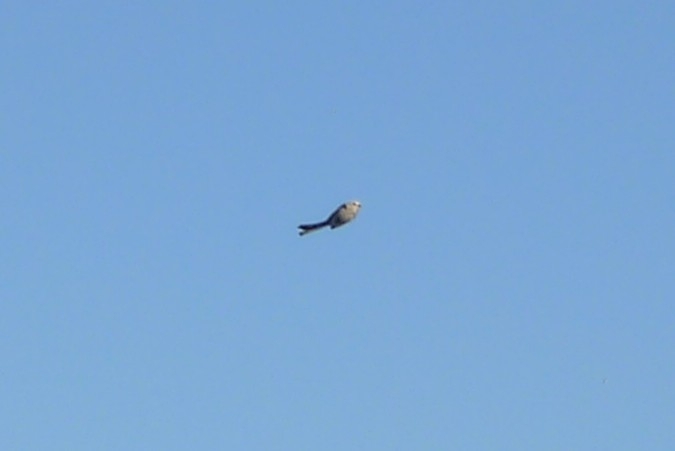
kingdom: Animalia
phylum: Chordata
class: Aves
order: Passeriformes
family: Aegithalidae
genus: Aegithalos
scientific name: Aegithalos caudatus
